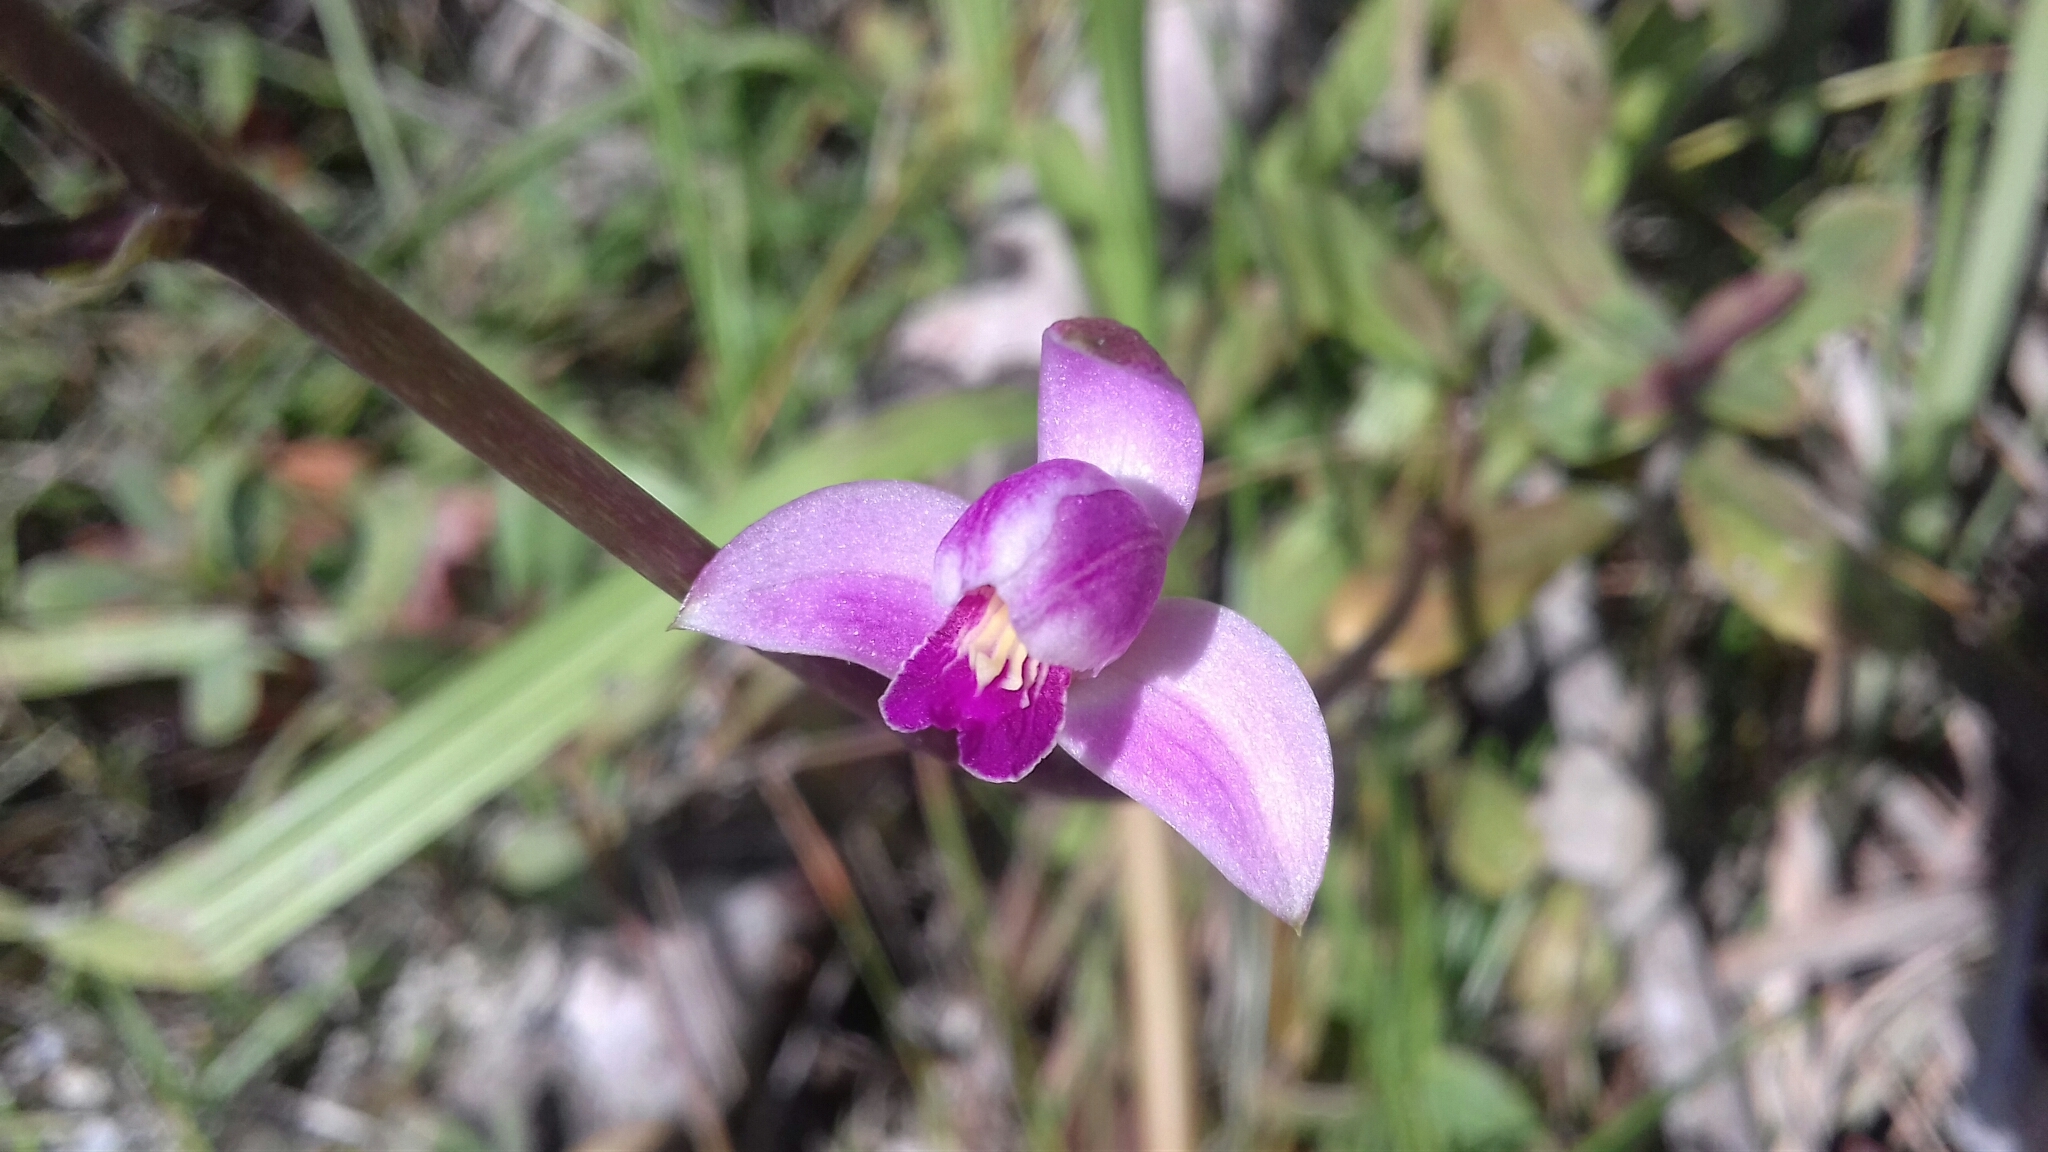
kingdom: Plantae
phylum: Tracheophyta
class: Liliopsida
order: Asparagales
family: Orchidaceae
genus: Bletia
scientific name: Bletia purpurea
